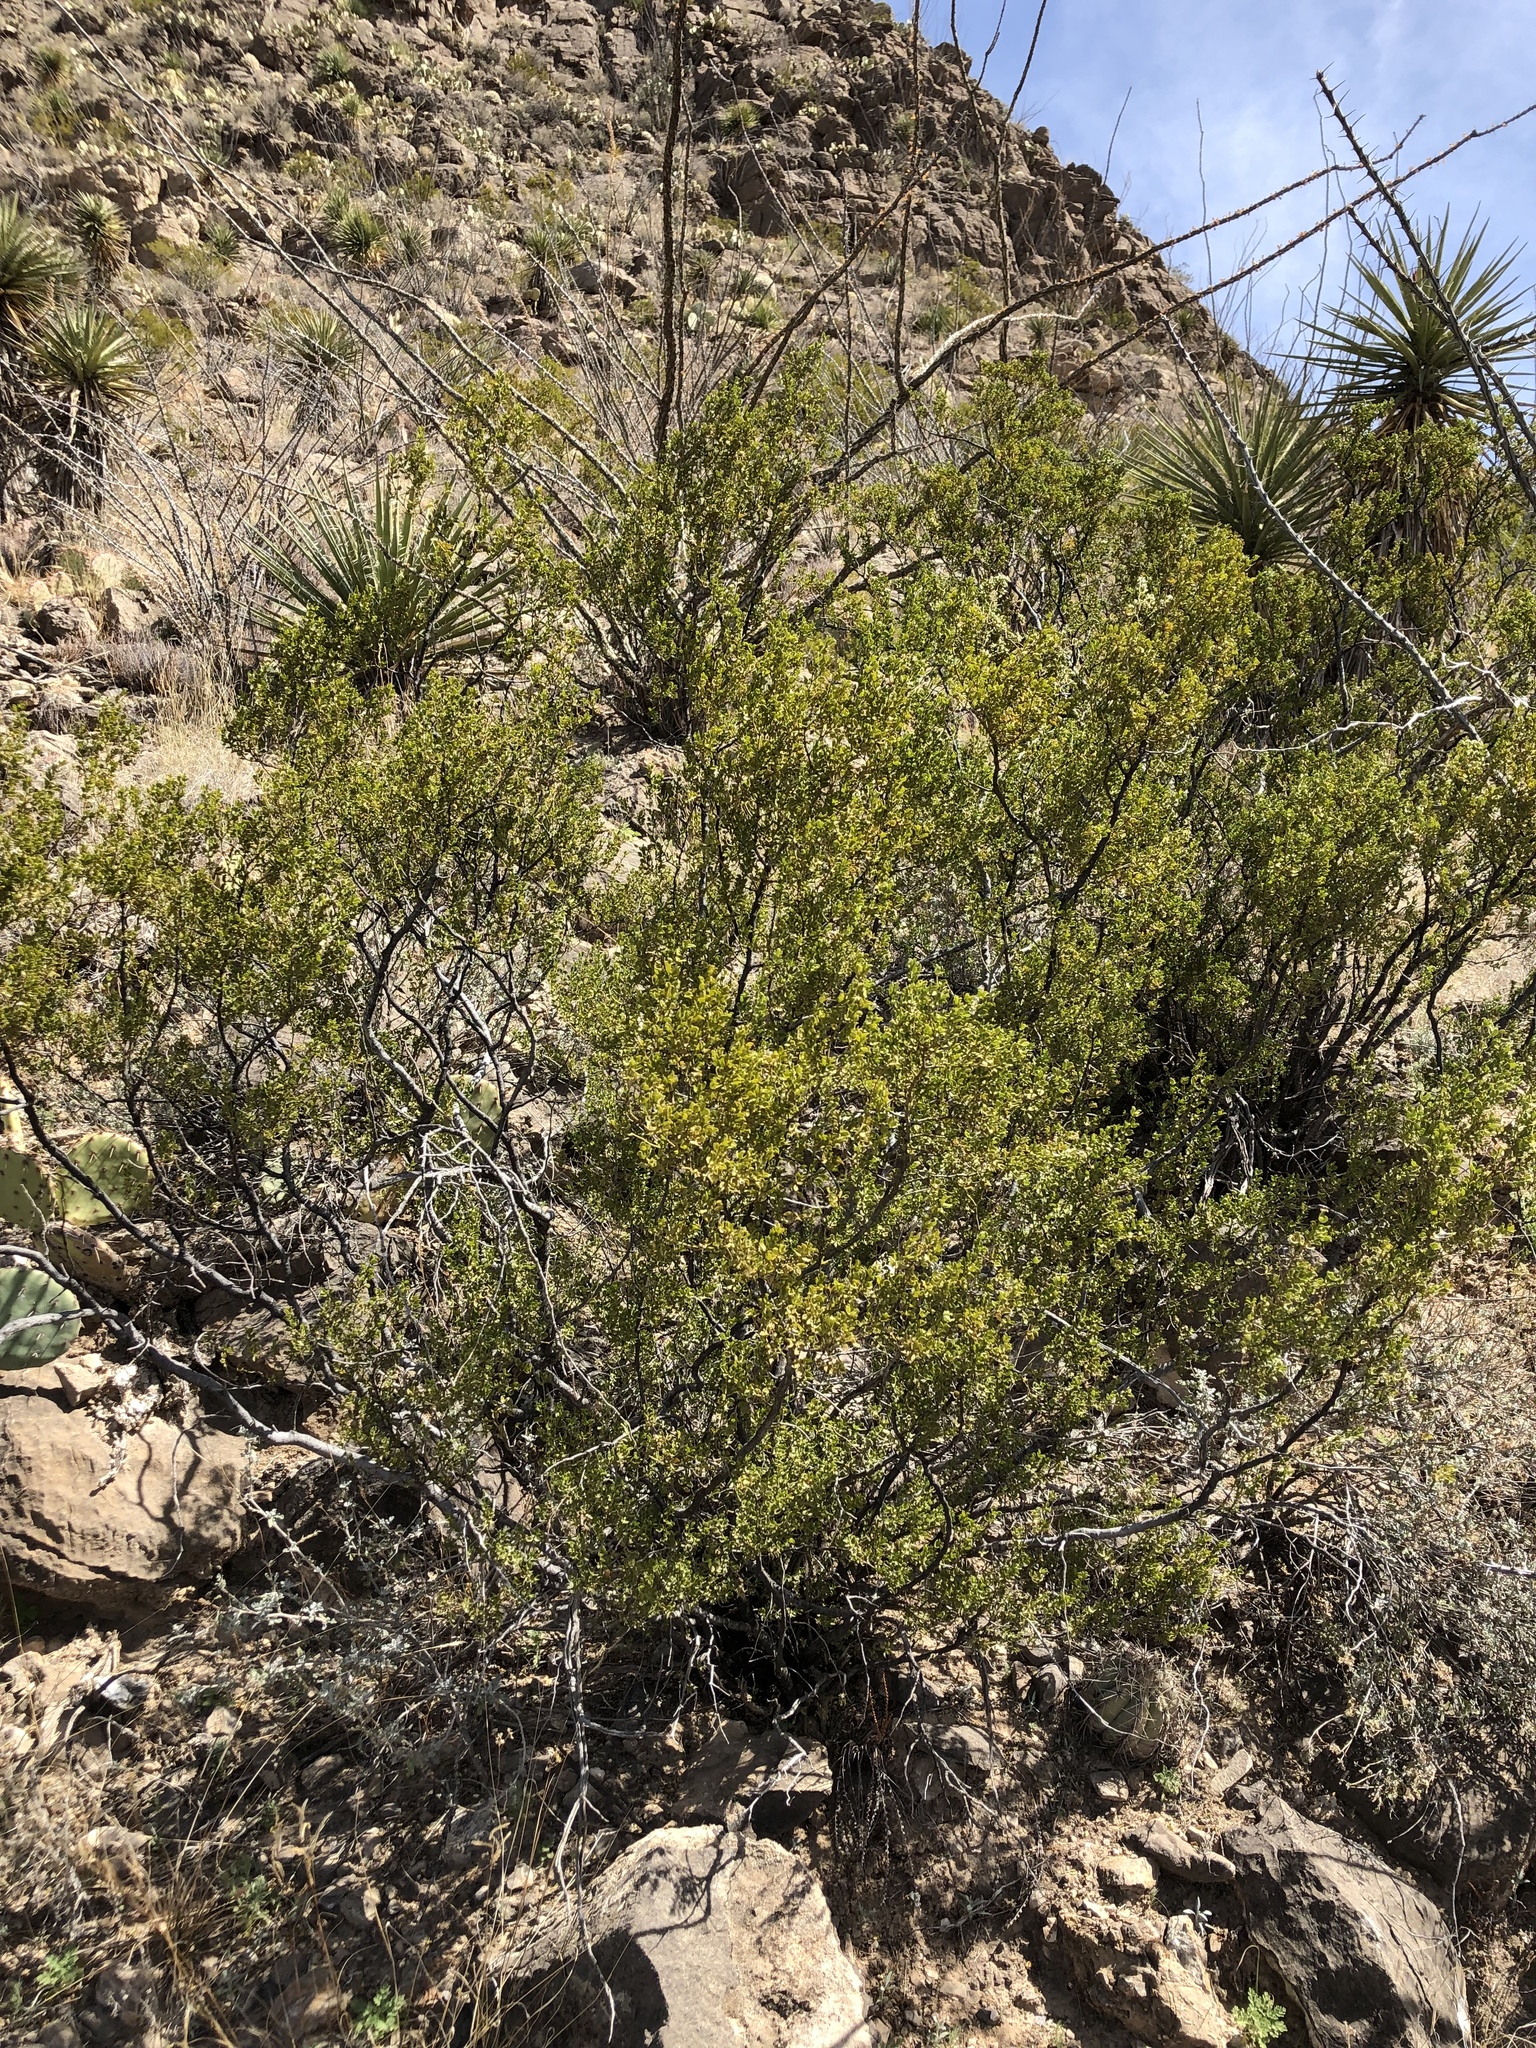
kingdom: Plantae
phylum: Tracheophyta
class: Magnoliopsida
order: Zygophyllales
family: Zygophyllaceae
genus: Larrea
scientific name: Larrea tridentata
